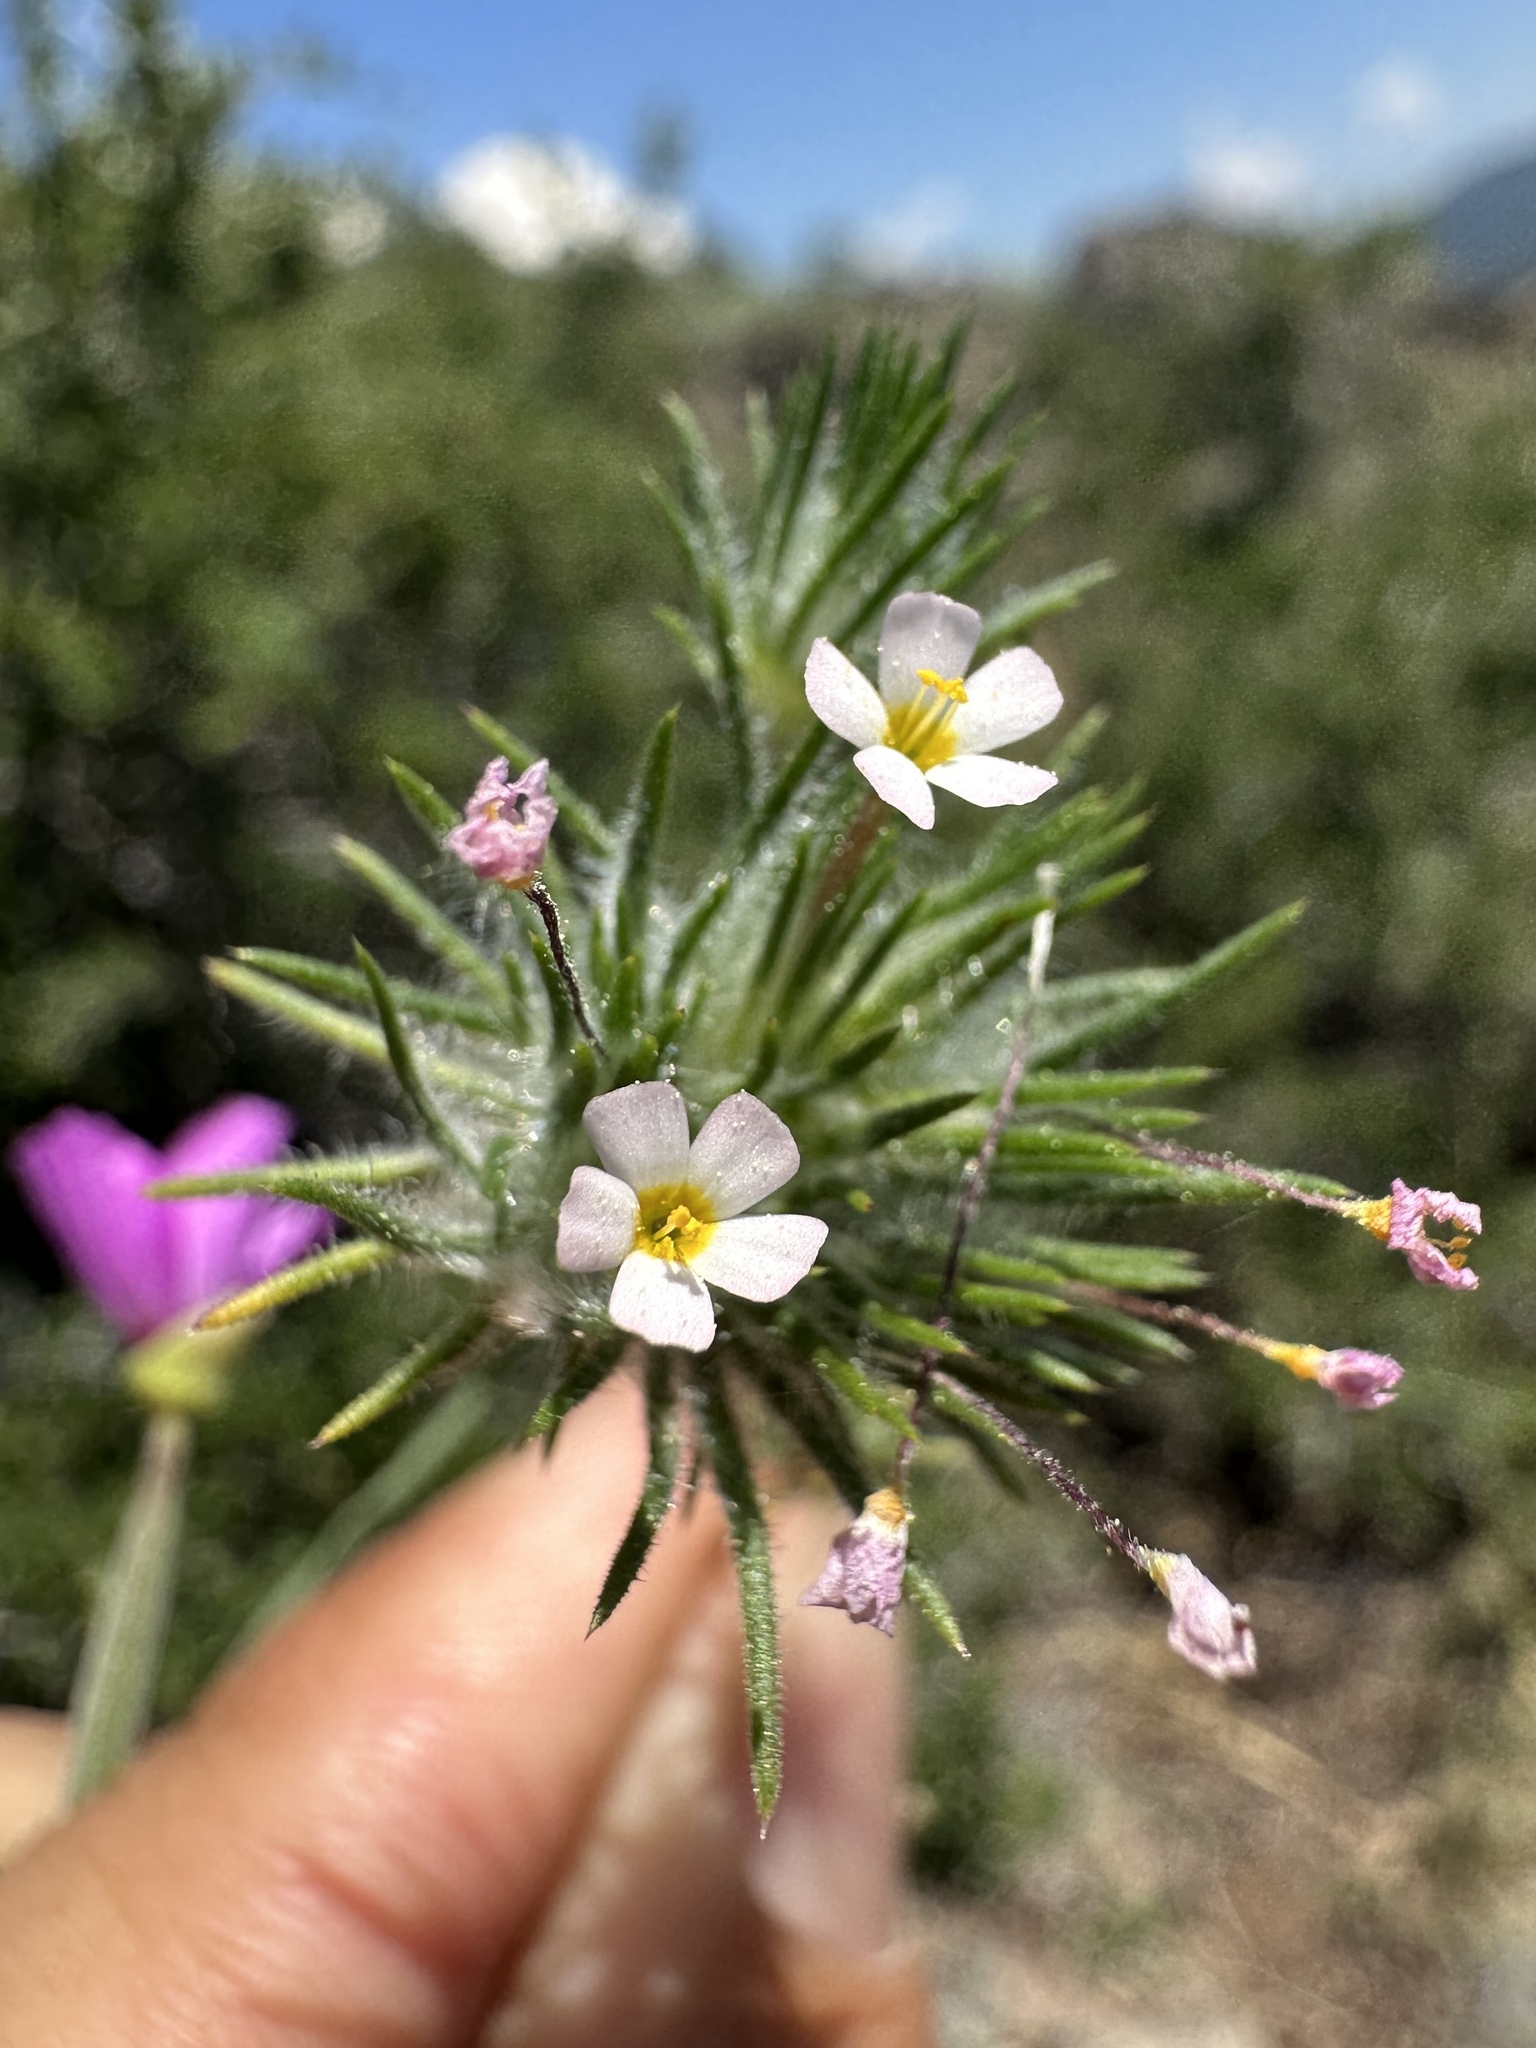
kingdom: Plantae
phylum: Tracheophyta
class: Magnoliopsida
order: Ericales
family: Polemoniaceae
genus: Leptosiphon
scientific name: Leptosiphon ciliatus
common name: Whiskerbrush
